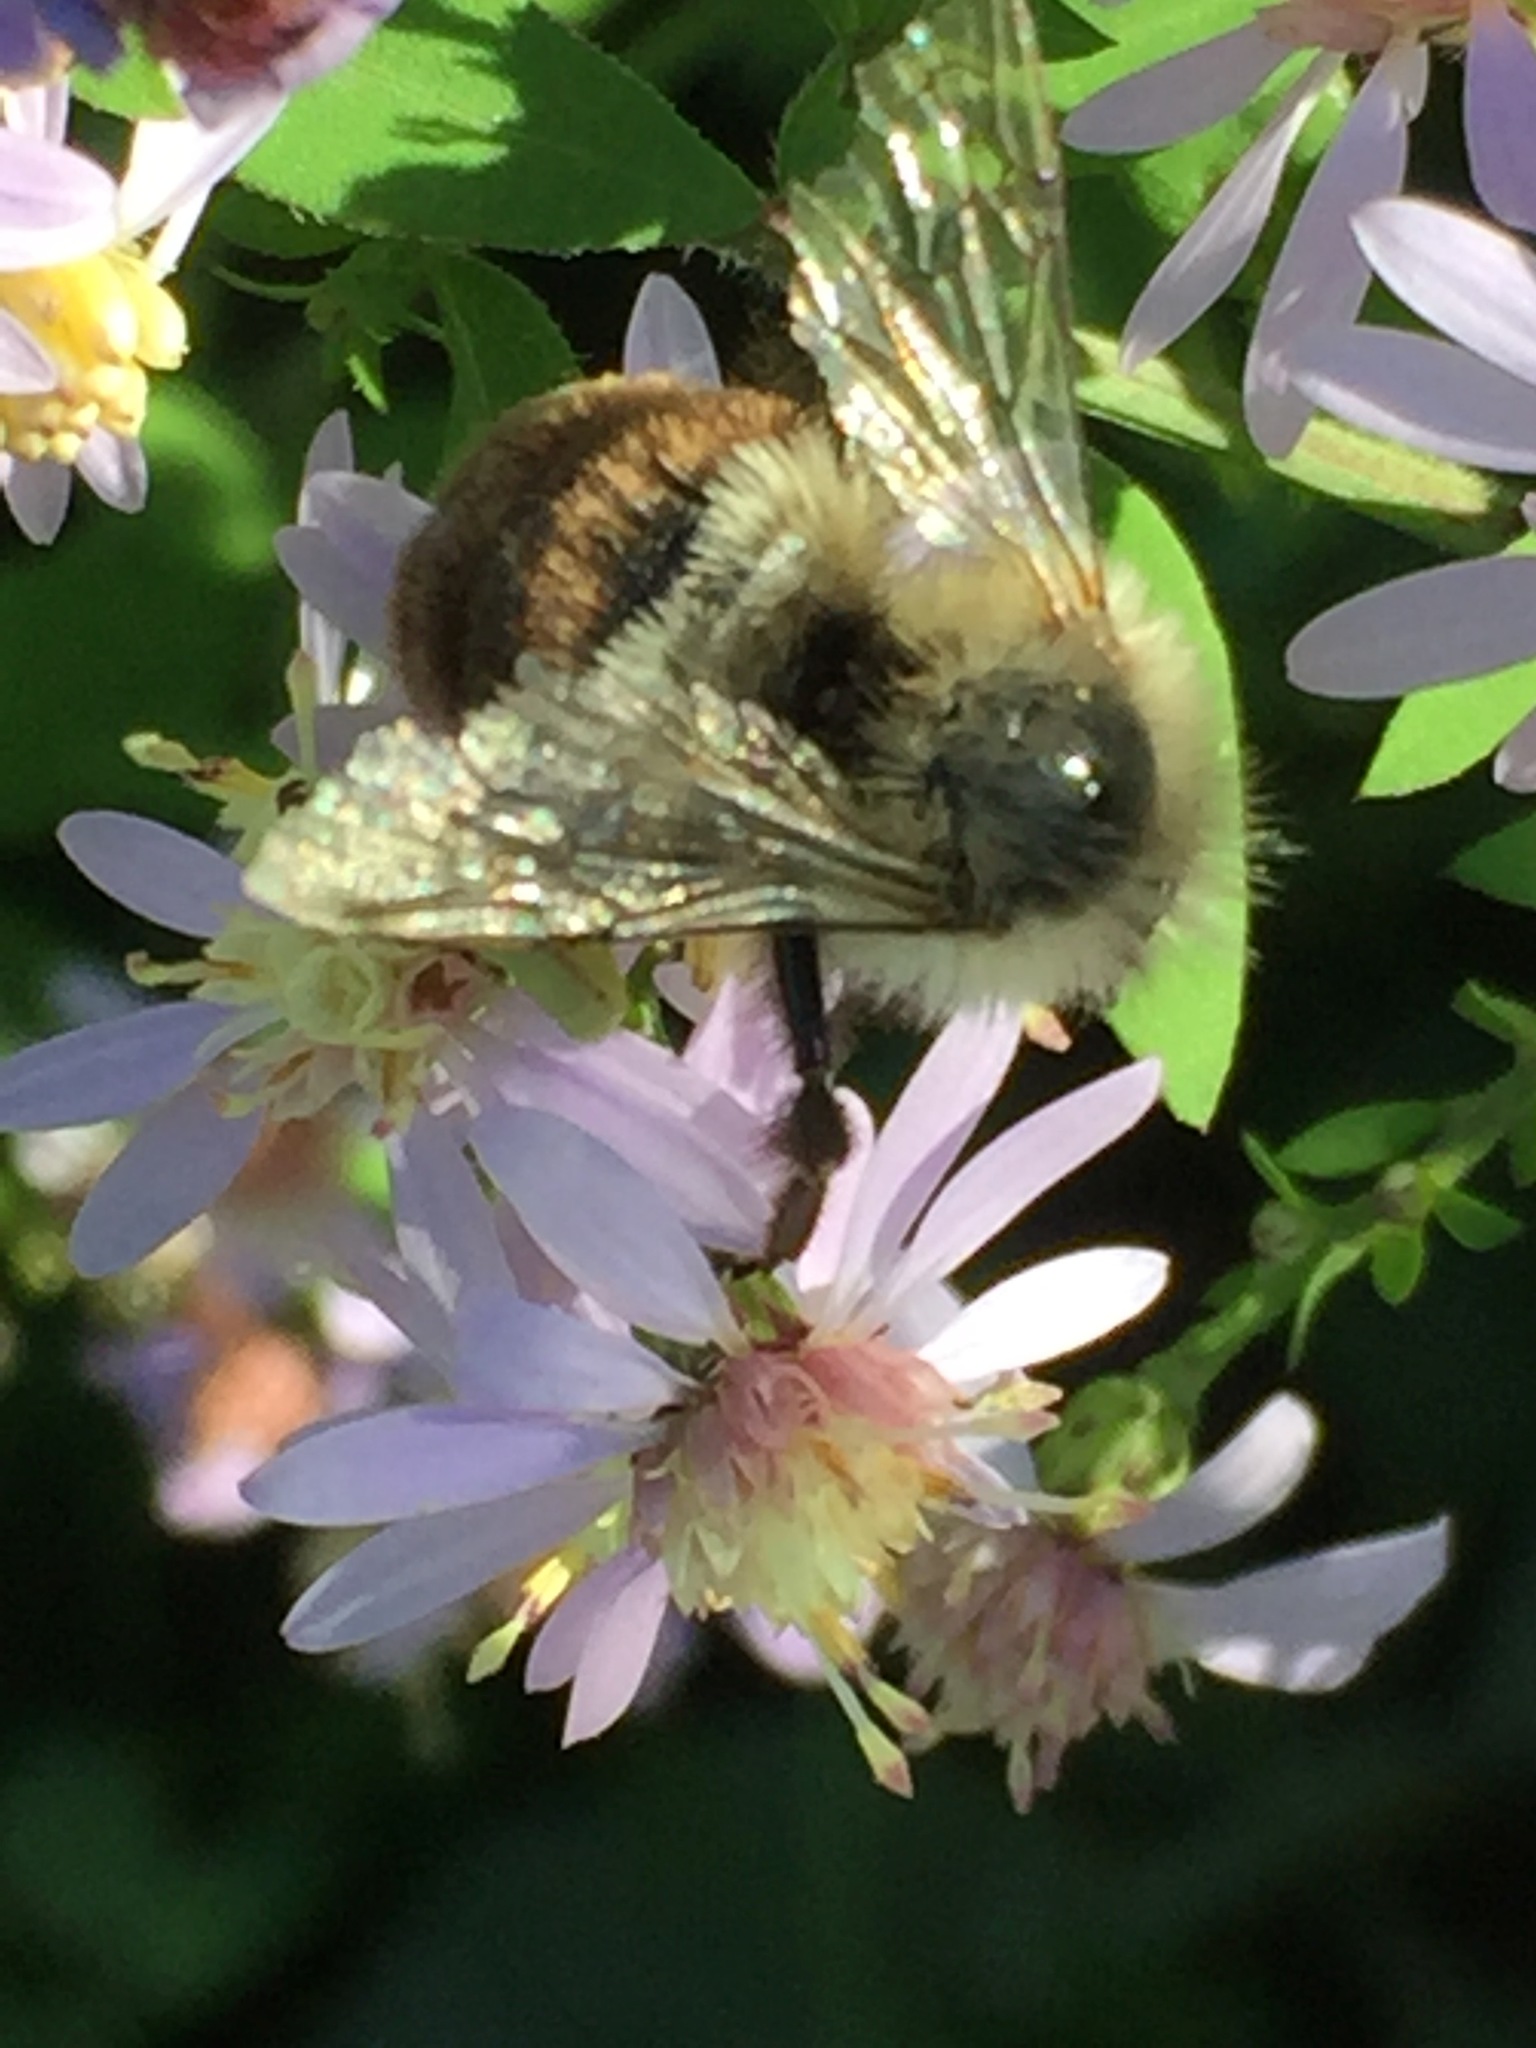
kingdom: Animalia
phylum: Arthropoda
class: Insecta
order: Hymenoptera
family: Apidae
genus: Bombus
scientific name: Bombus impatiens
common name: Common eastern bumble bee
